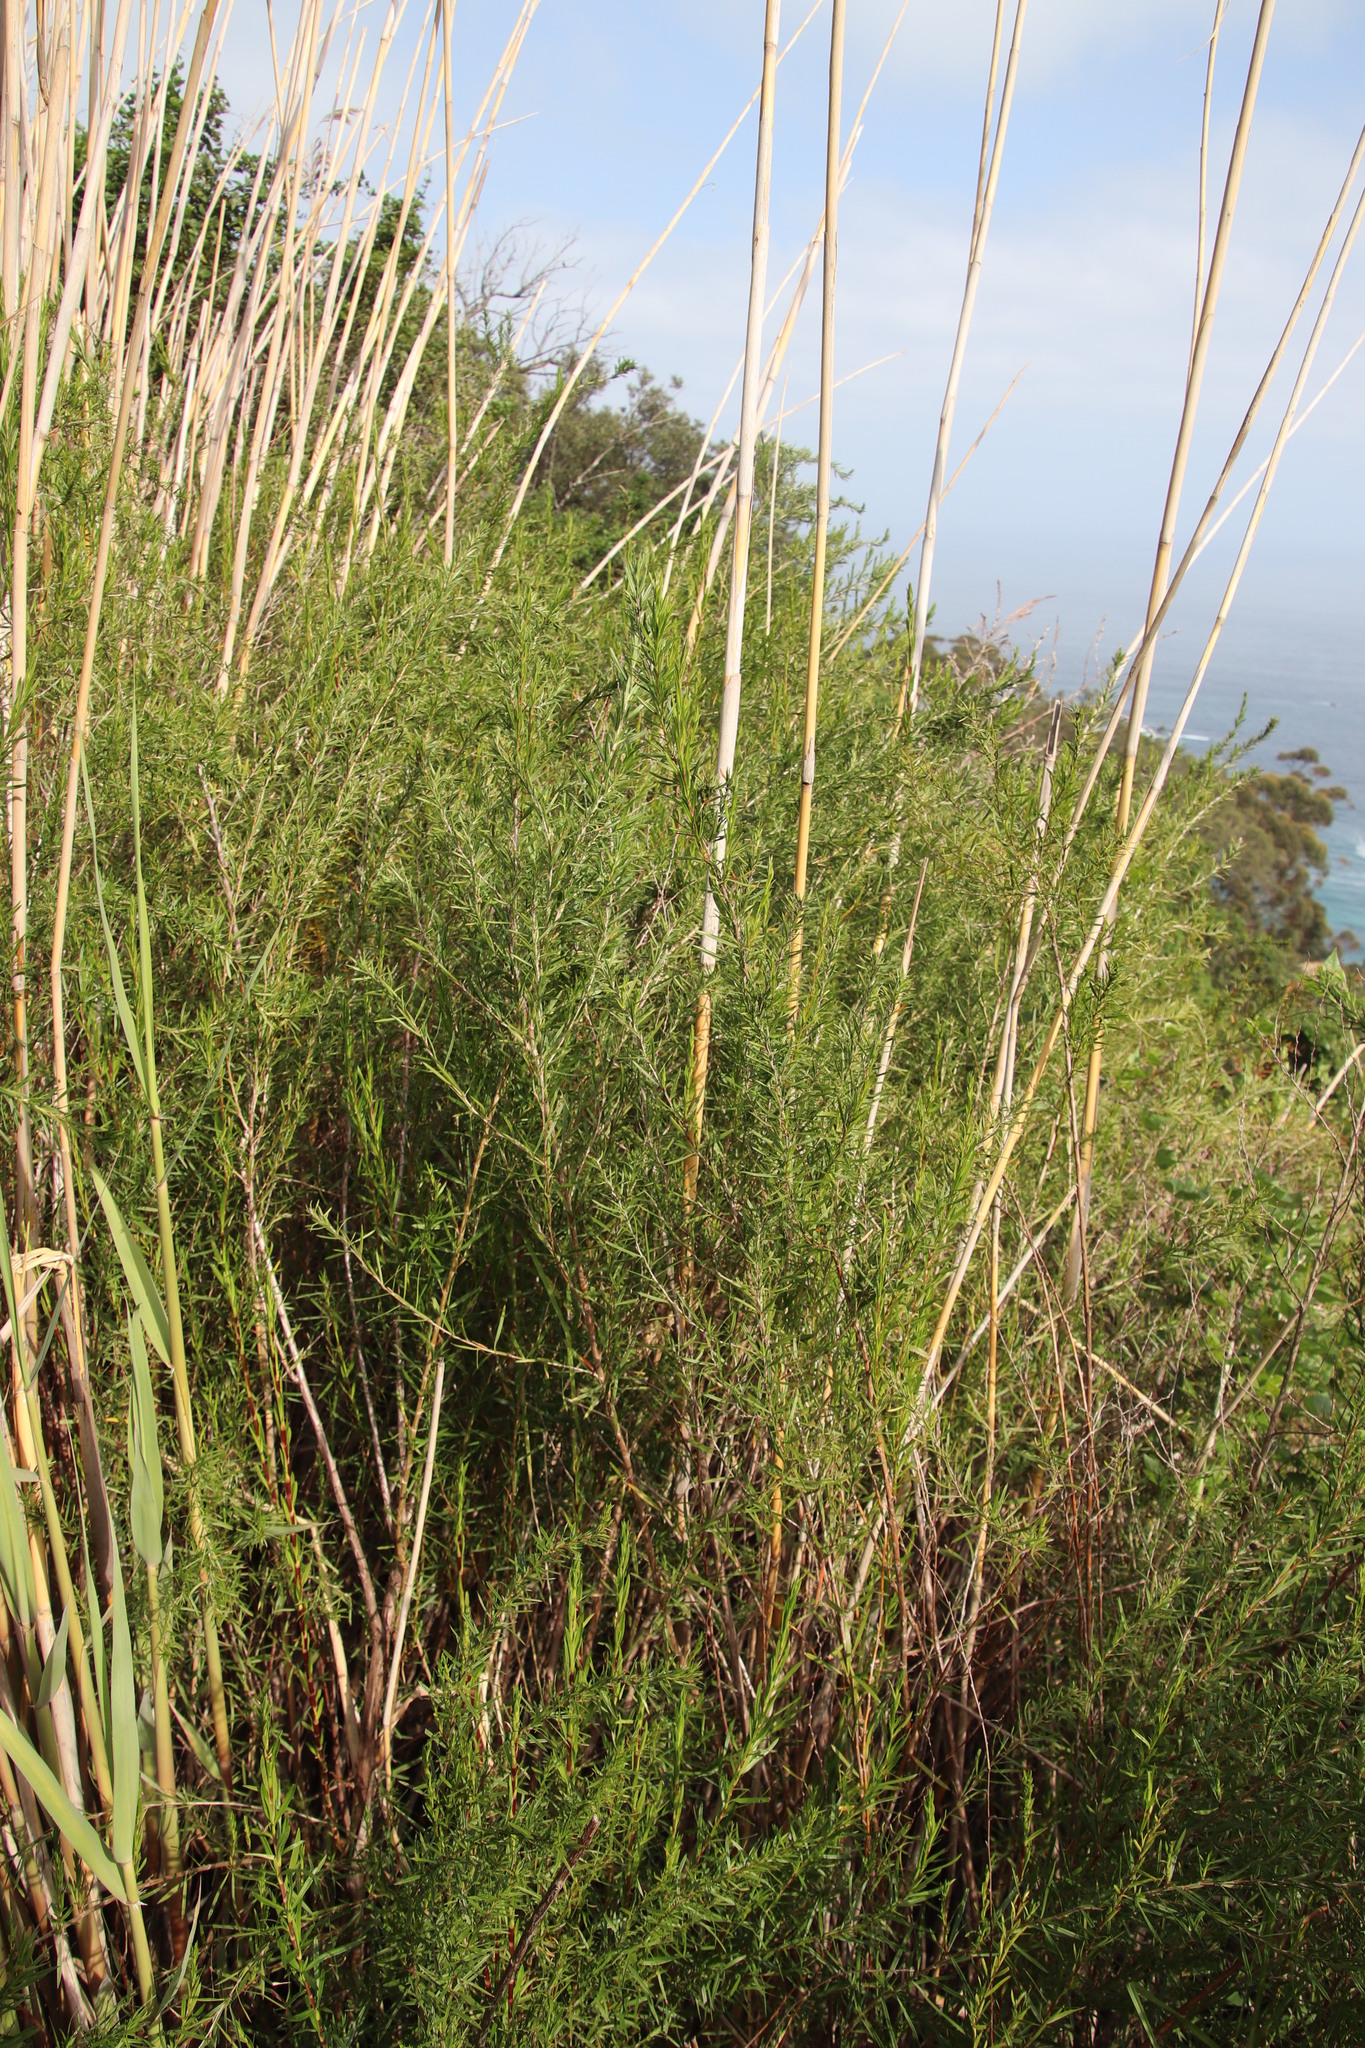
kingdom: Plantae
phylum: Tracheophyta
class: Magnoliopsida
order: Rosales
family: Rosaceae
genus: Cliffortia
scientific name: Cliffortia strobilifera
